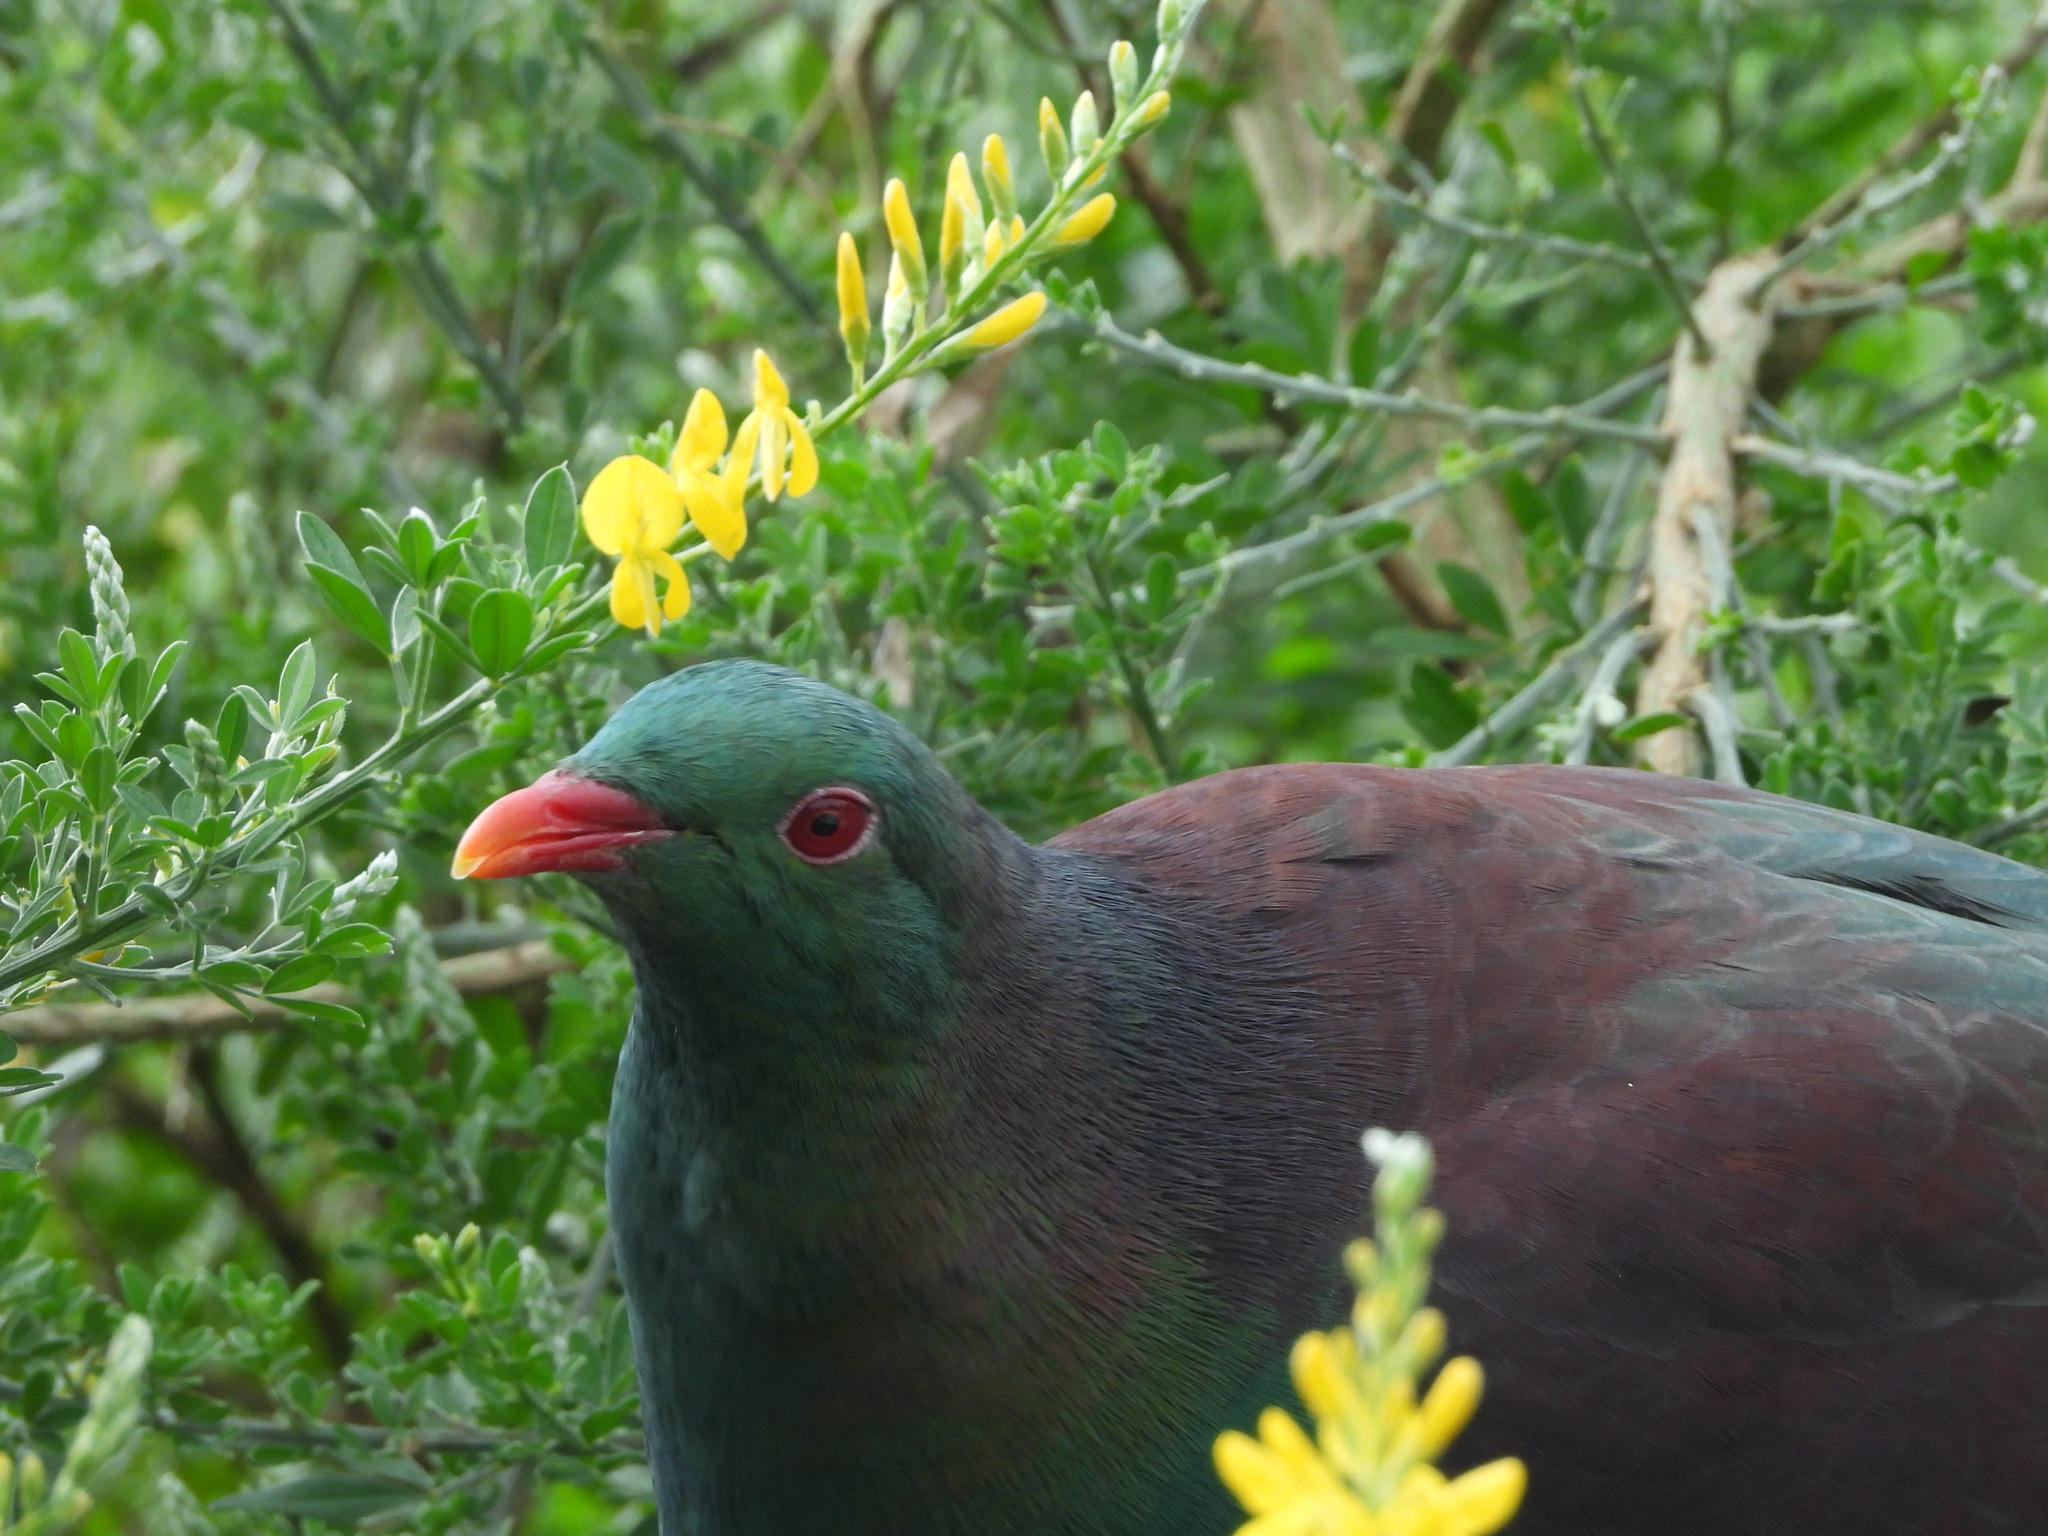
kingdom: Animalia
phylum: Chordata
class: Aves
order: Columbiformes
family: Columbidae
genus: Hemiphaga
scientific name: Hemiphaga novaeseelandiae
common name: New zealand pigeon
